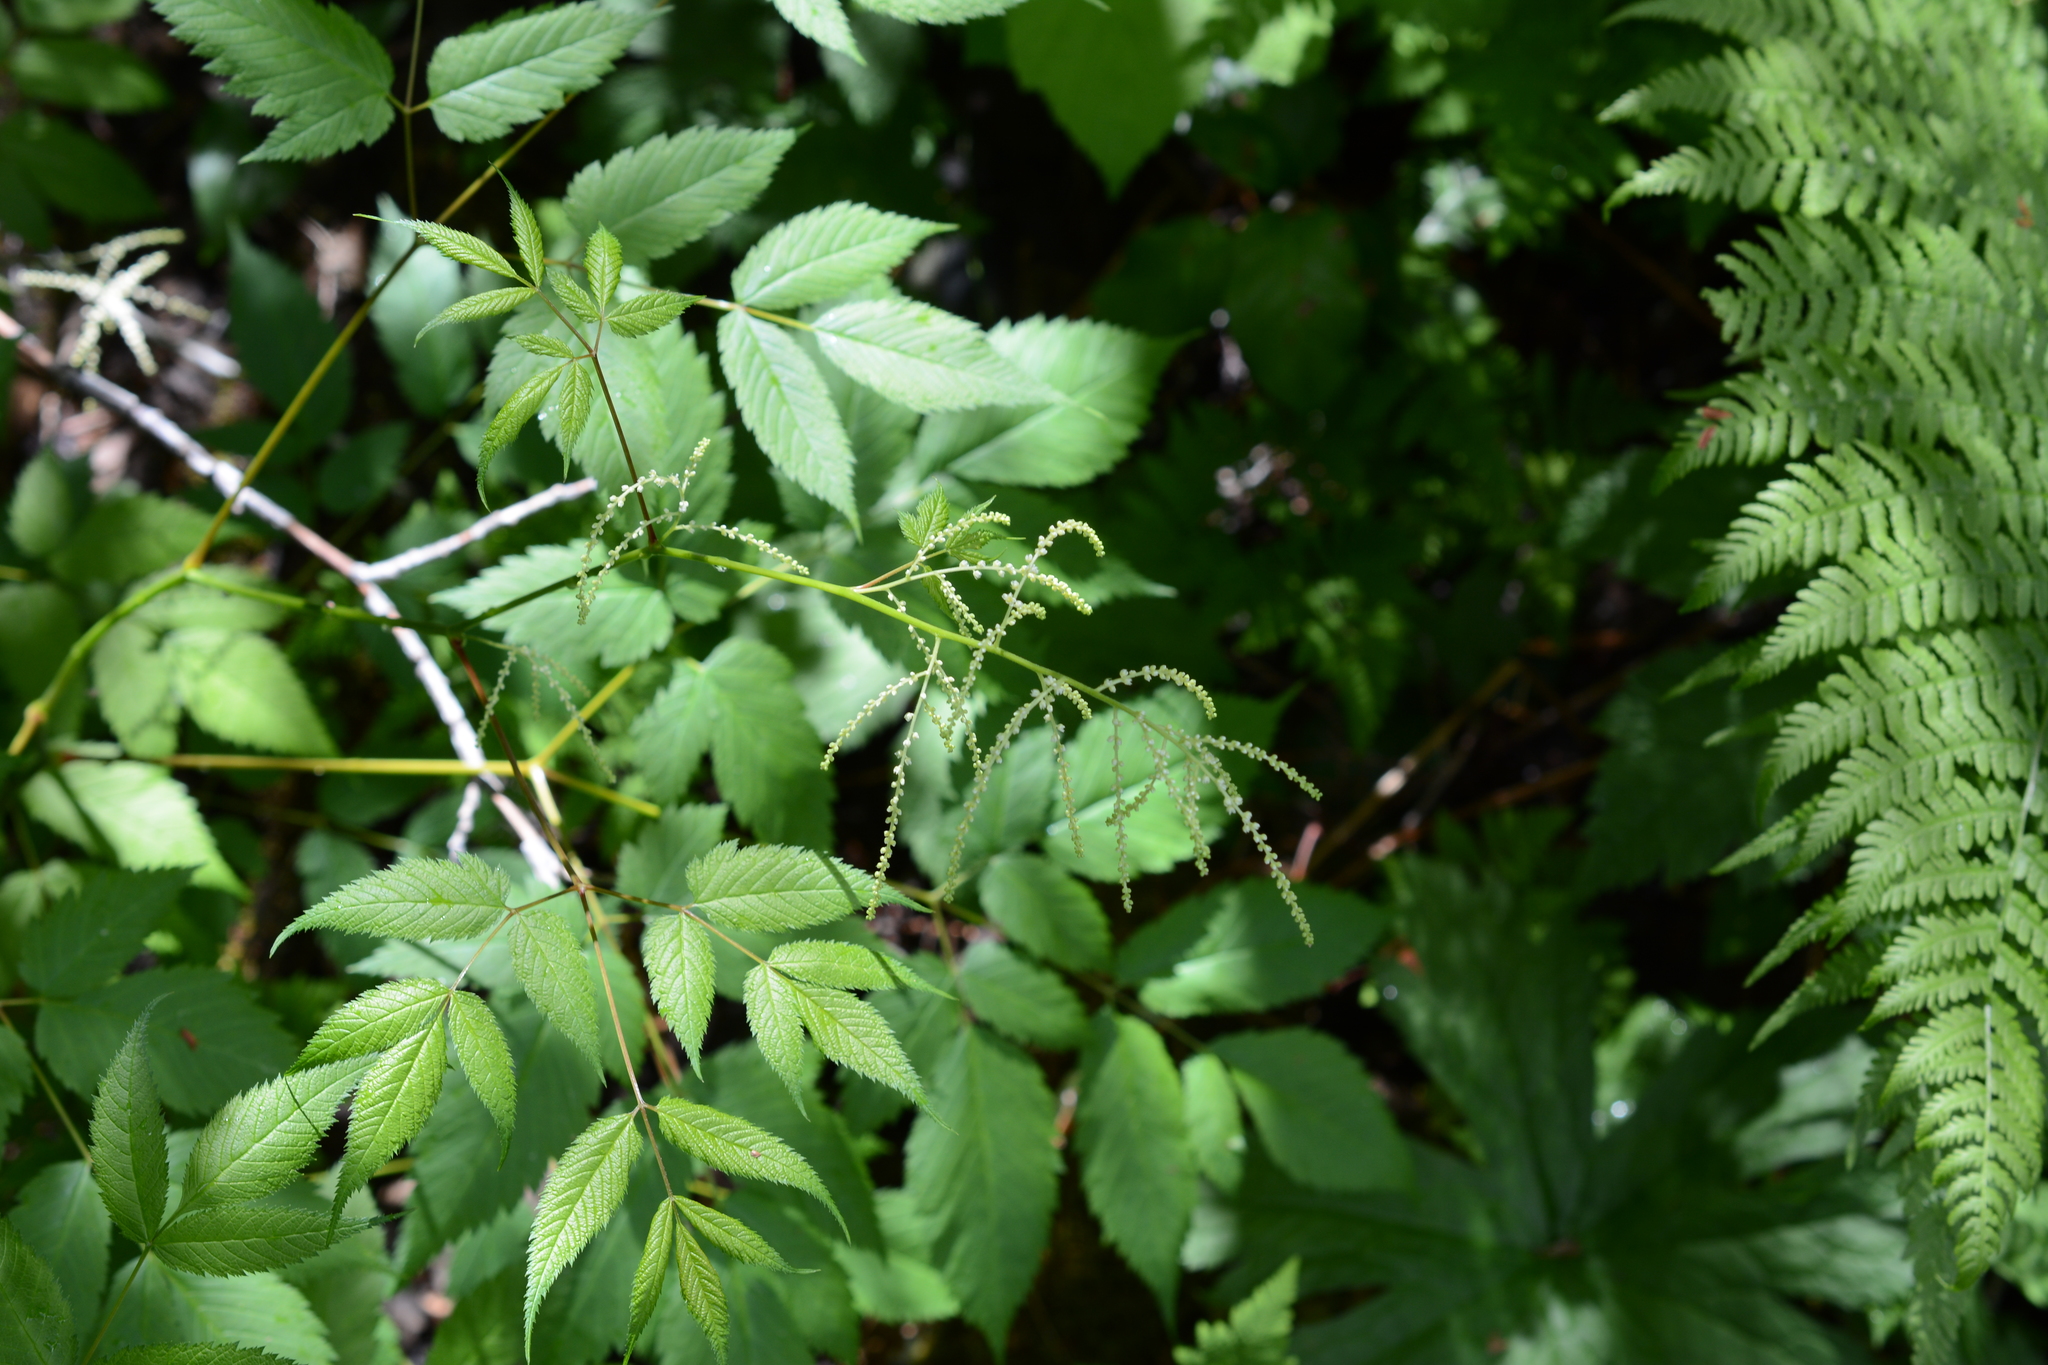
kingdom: Plantae
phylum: Tracheophyta
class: Magnoliopsida
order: Rosales
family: Rosaceae
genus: Aruncus
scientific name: Aruncus dioicus
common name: Buck's-beard
